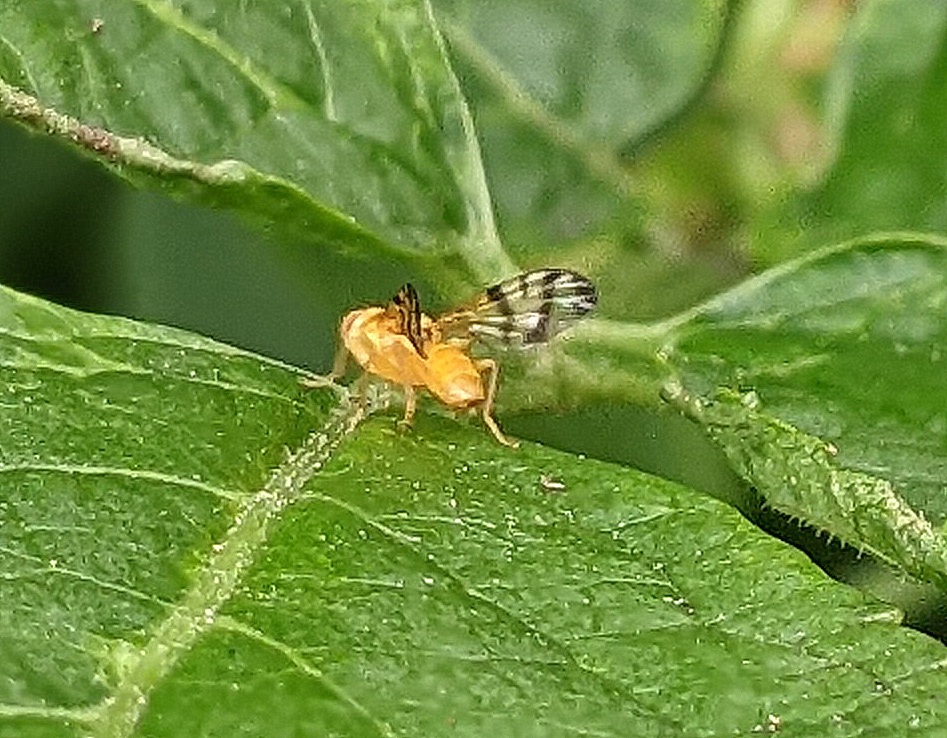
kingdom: Animalia
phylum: Arthropoda
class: Insecta
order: Diptera
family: Tephritidae
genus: Rhagoletis
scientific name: Rhagoletis alternata
